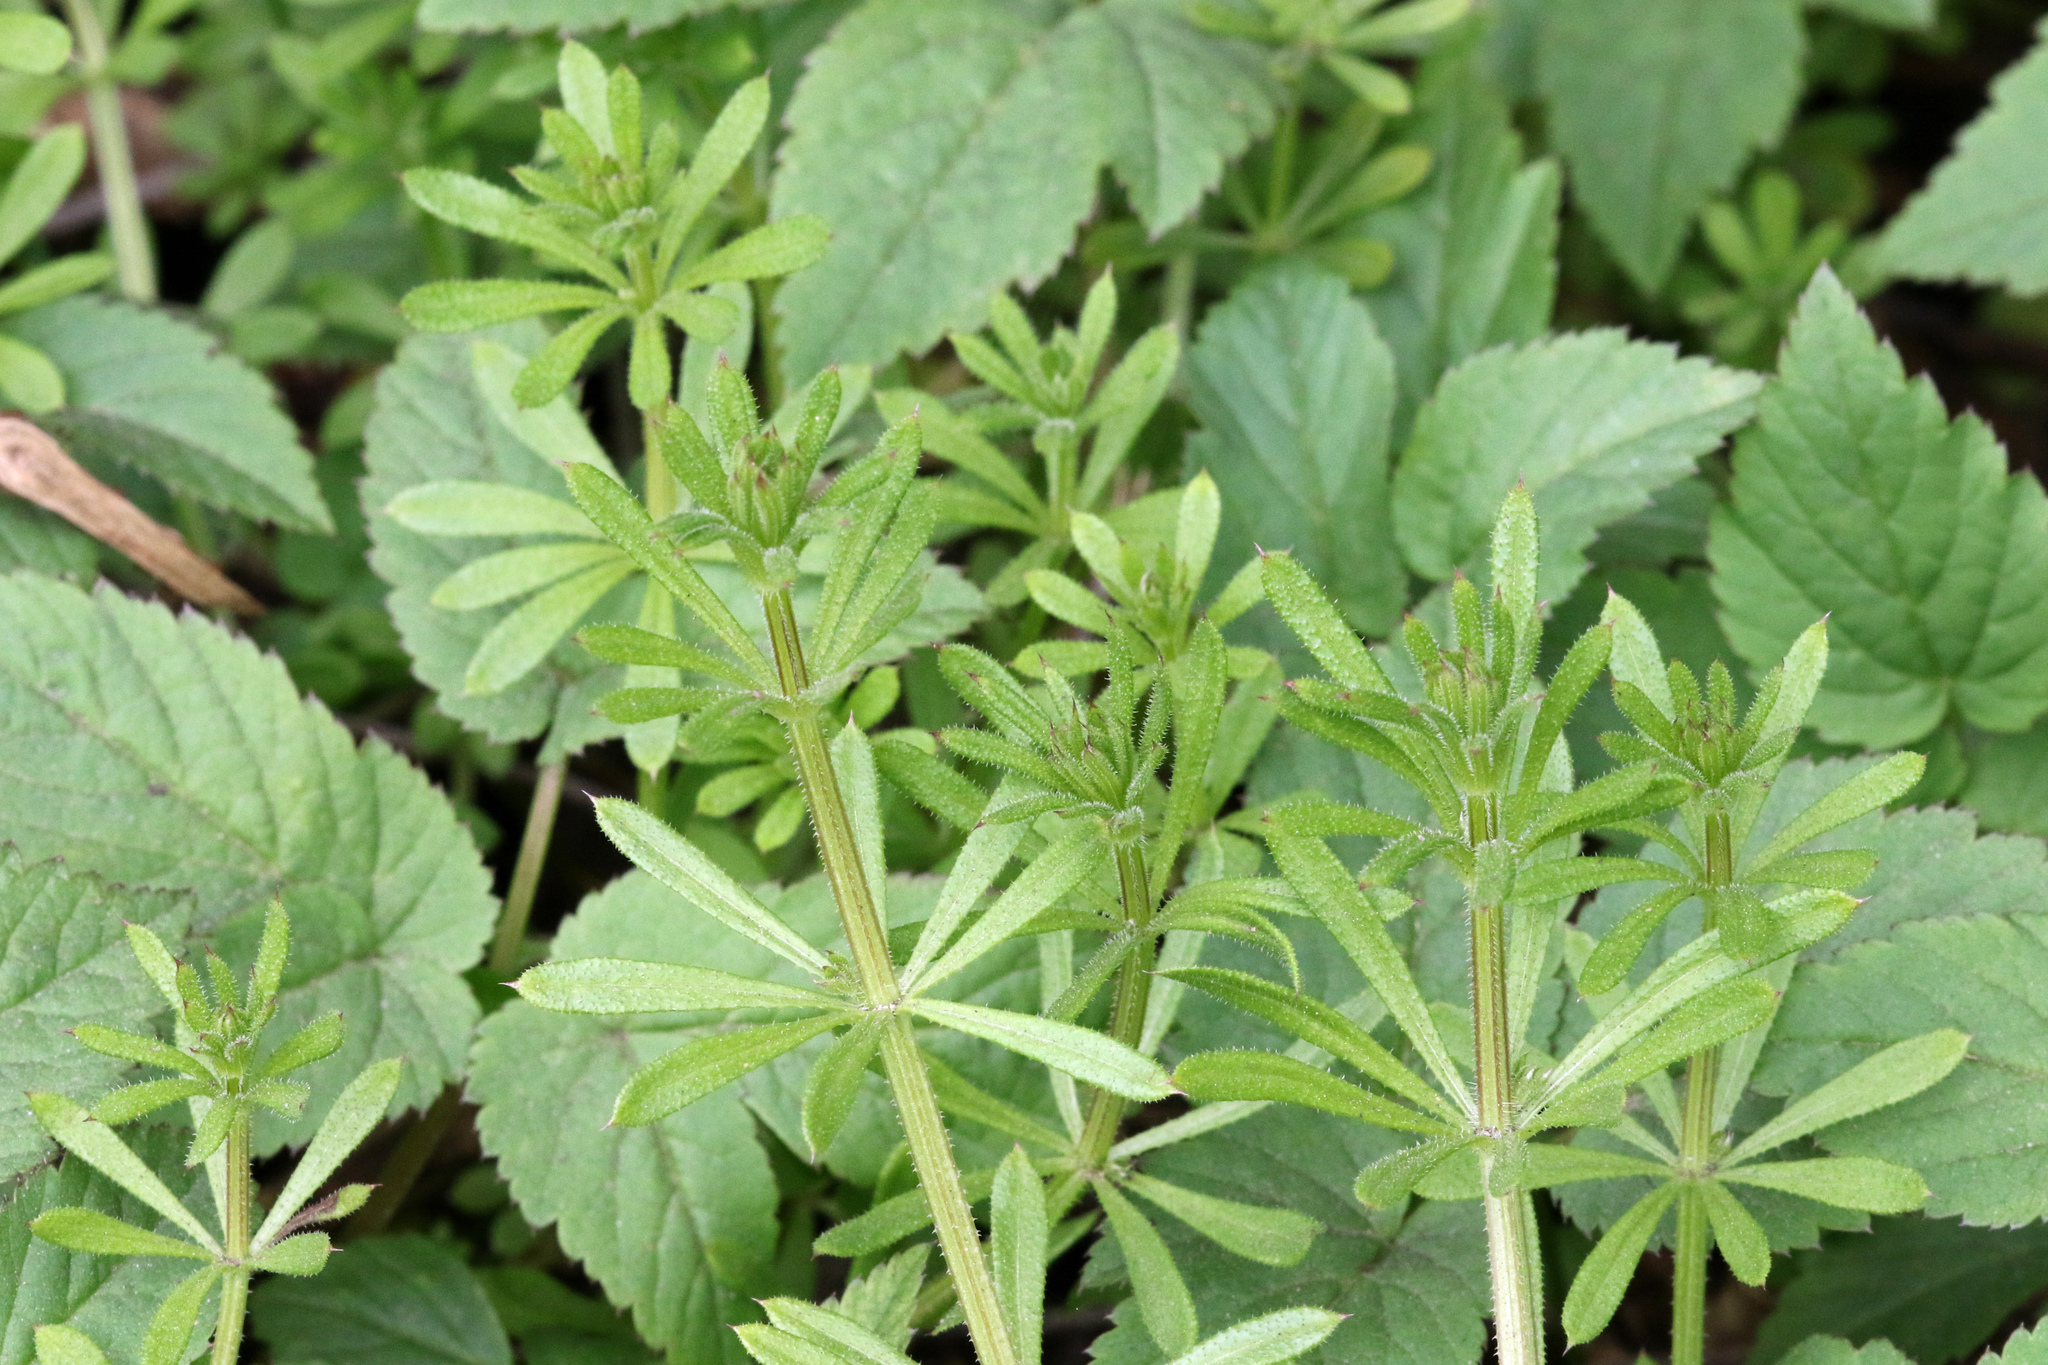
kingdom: Plantae
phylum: Tracheophyta
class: Magnoliopsida
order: Gentianales
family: Rubiaceae
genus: Galium
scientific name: Galium aparine
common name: Cleavers
